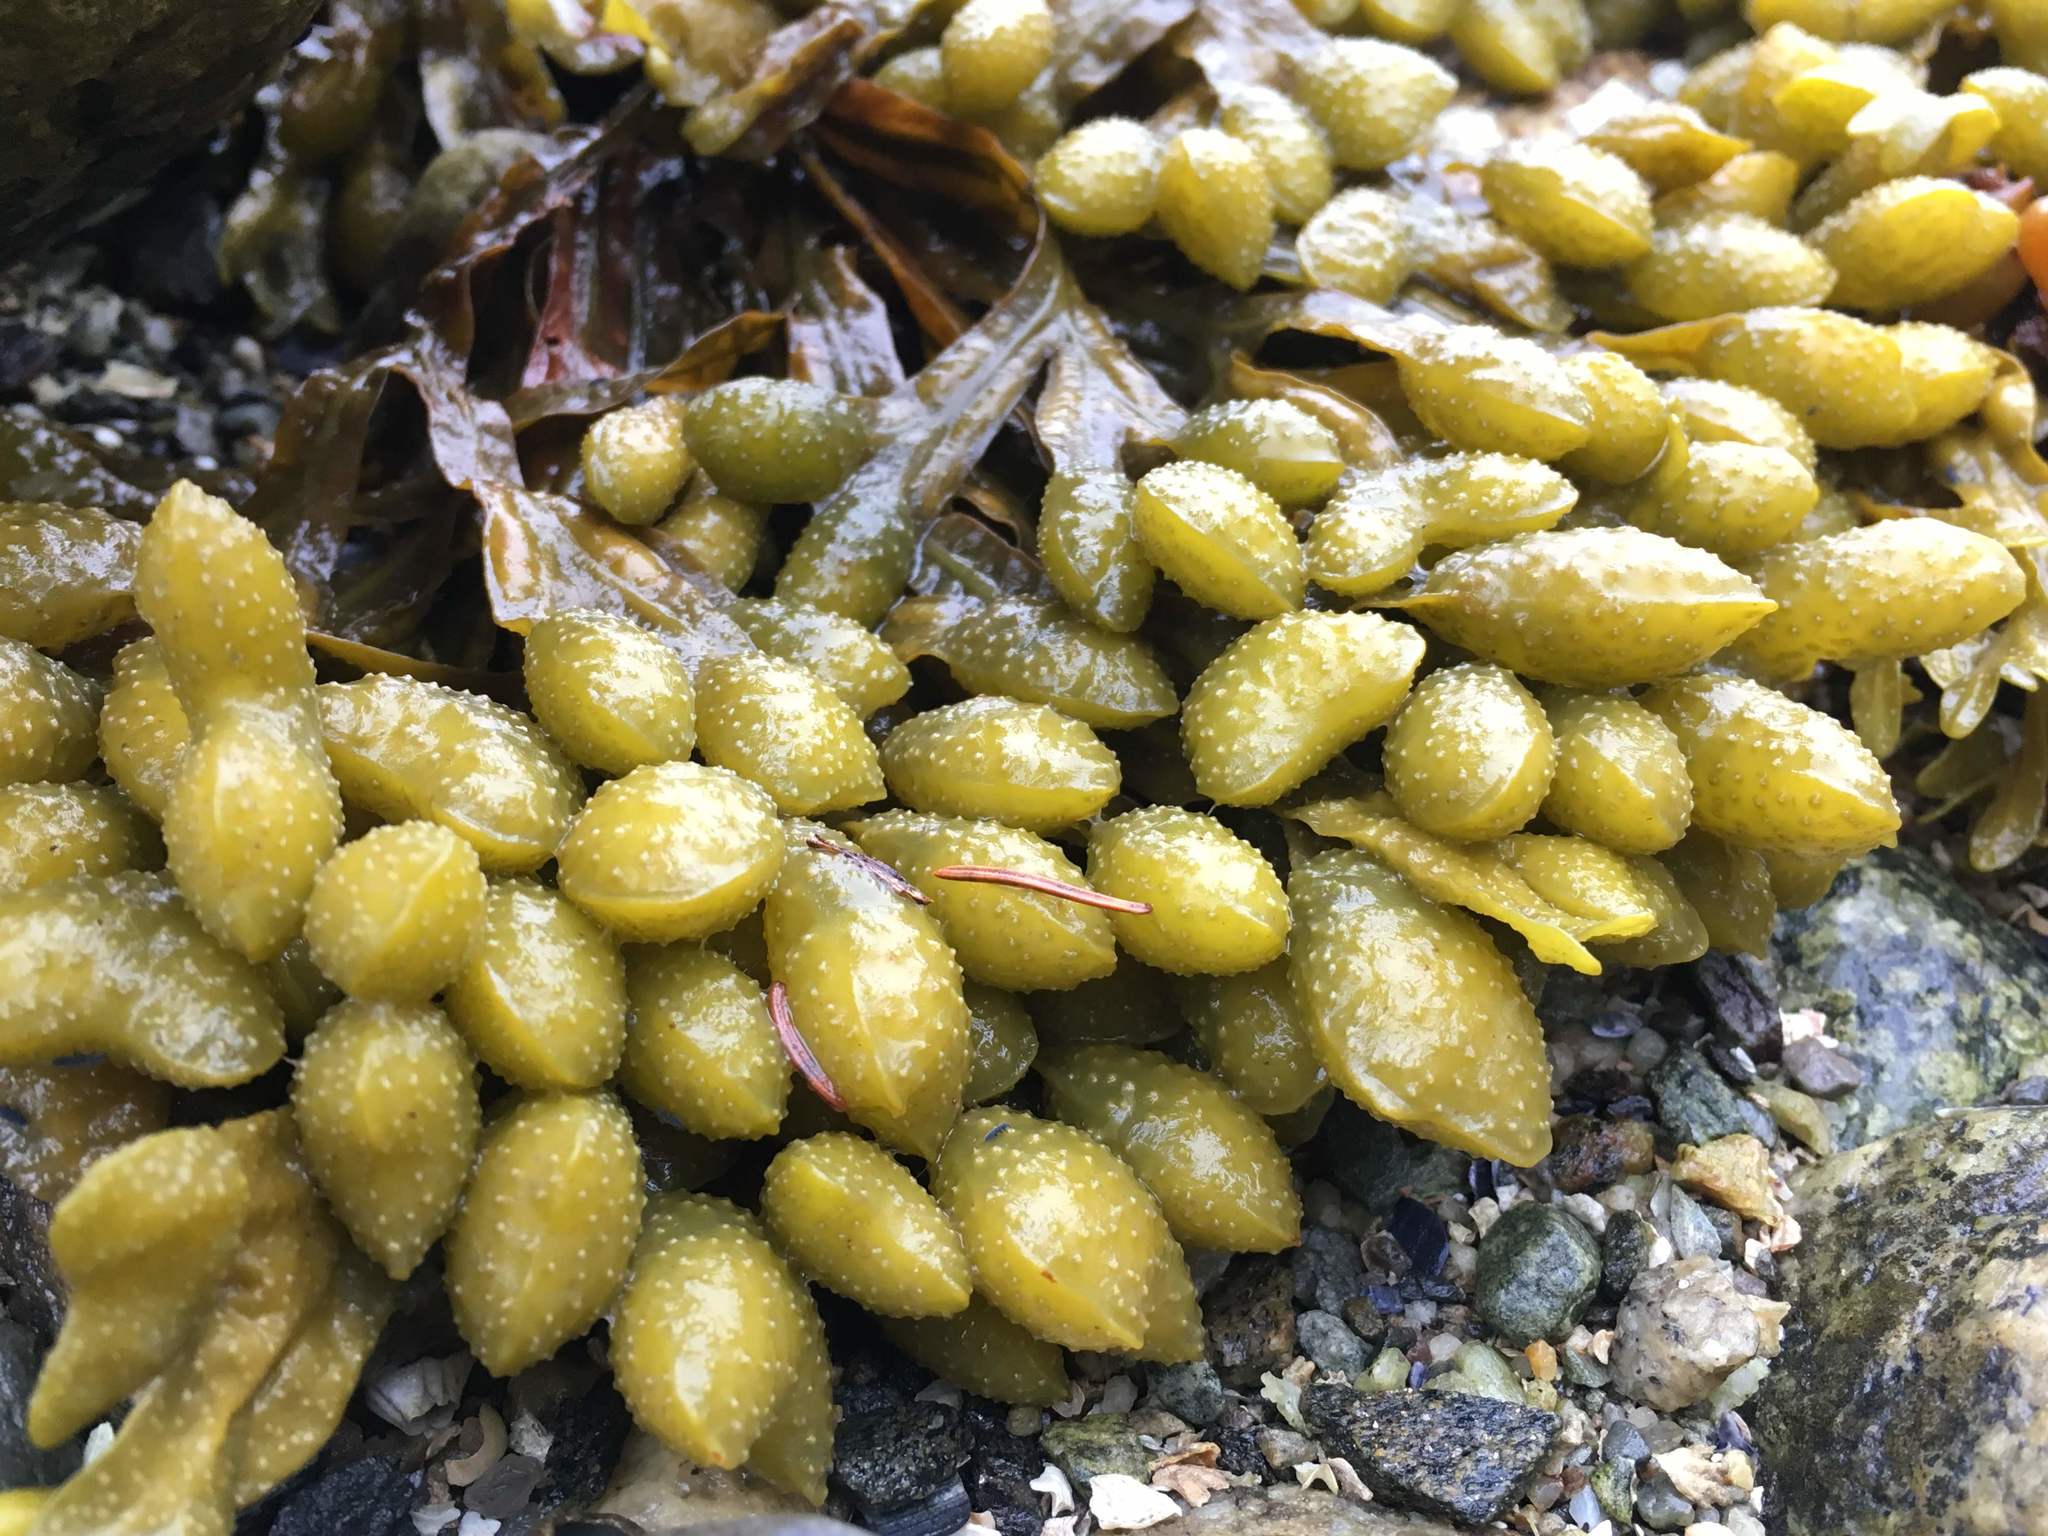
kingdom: Chromista
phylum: Ochrophyta
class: Phaeophyceae
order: Fucales
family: Fucaceae
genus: Fucus
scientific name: Fucus spiralis
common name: Spiral wrack
